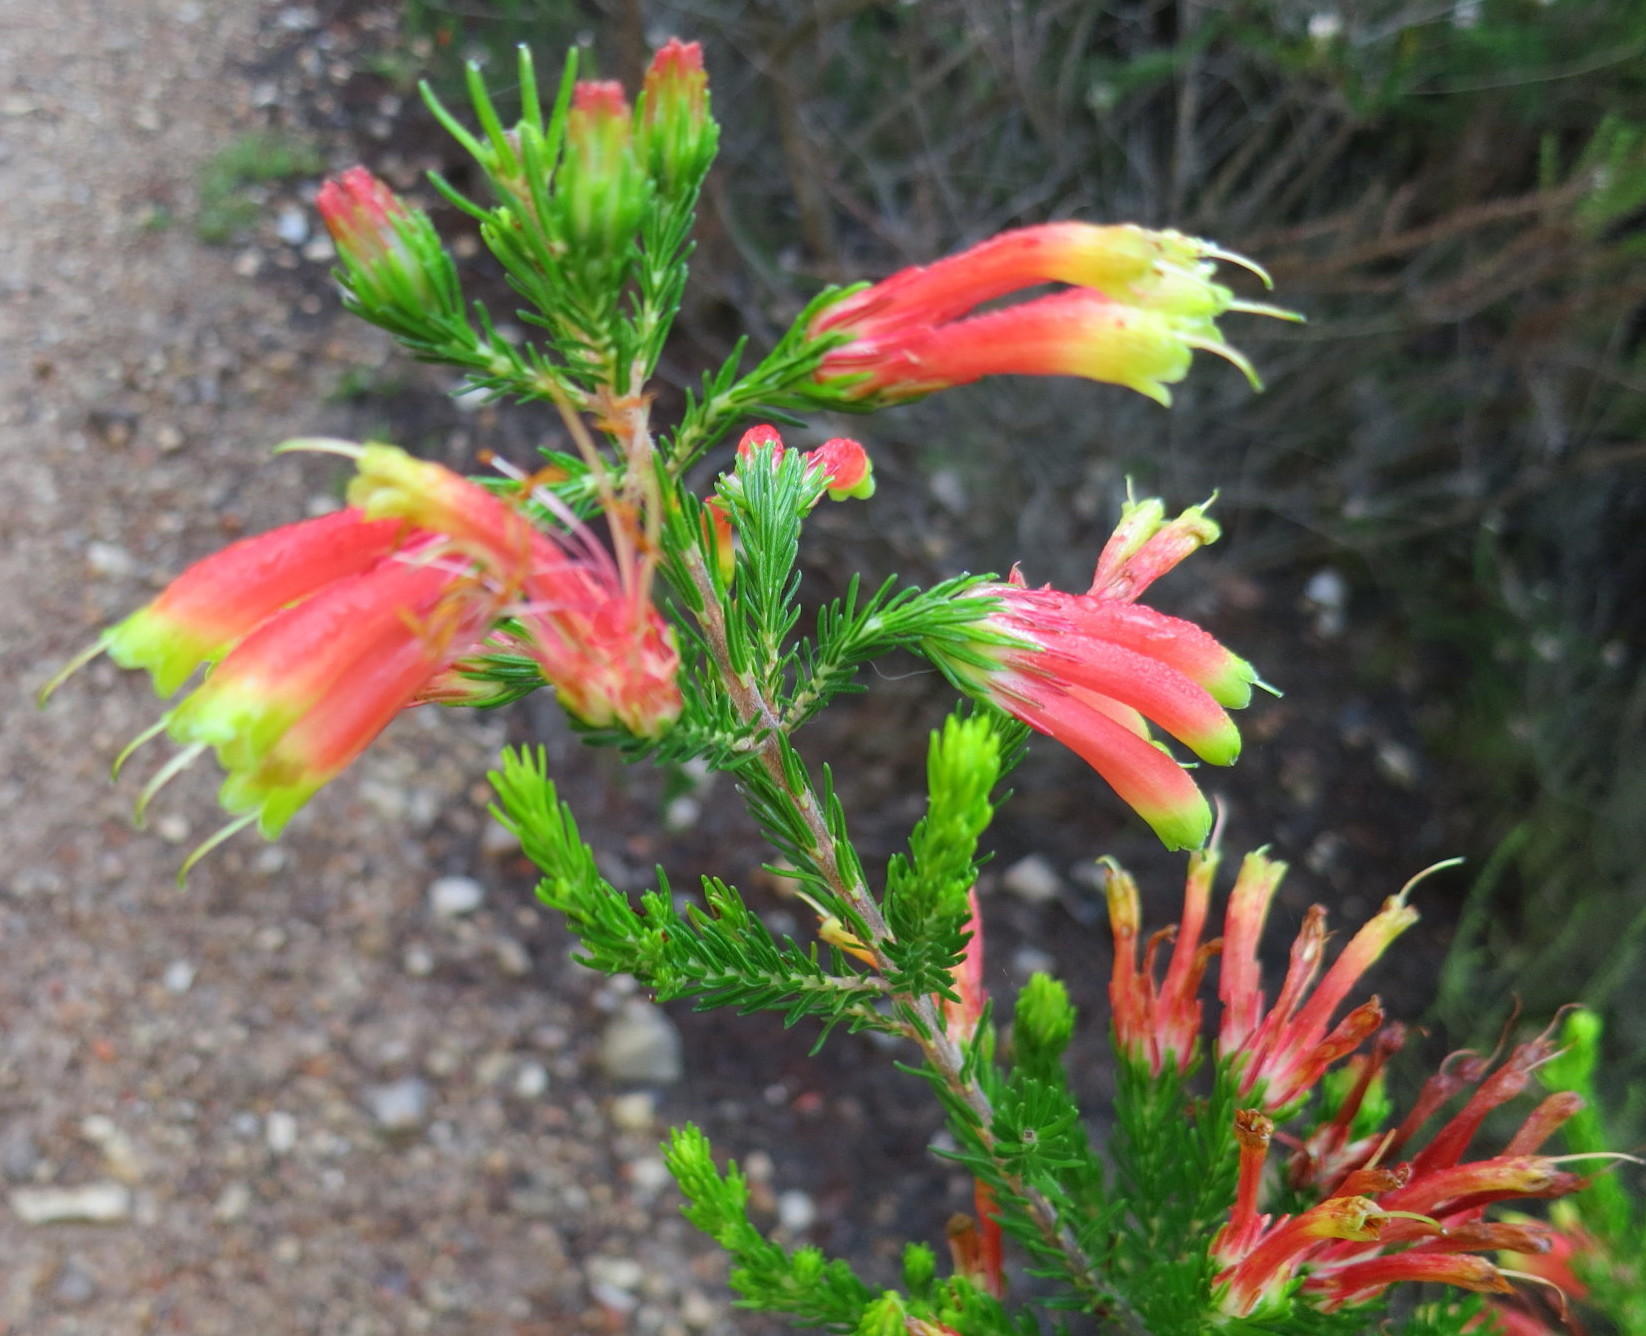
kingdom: Plantae
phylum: Tracheophyta
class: Magnoliopsida
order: Ericales
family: Ericaceae
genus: Erica
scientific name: Erica unicolor
